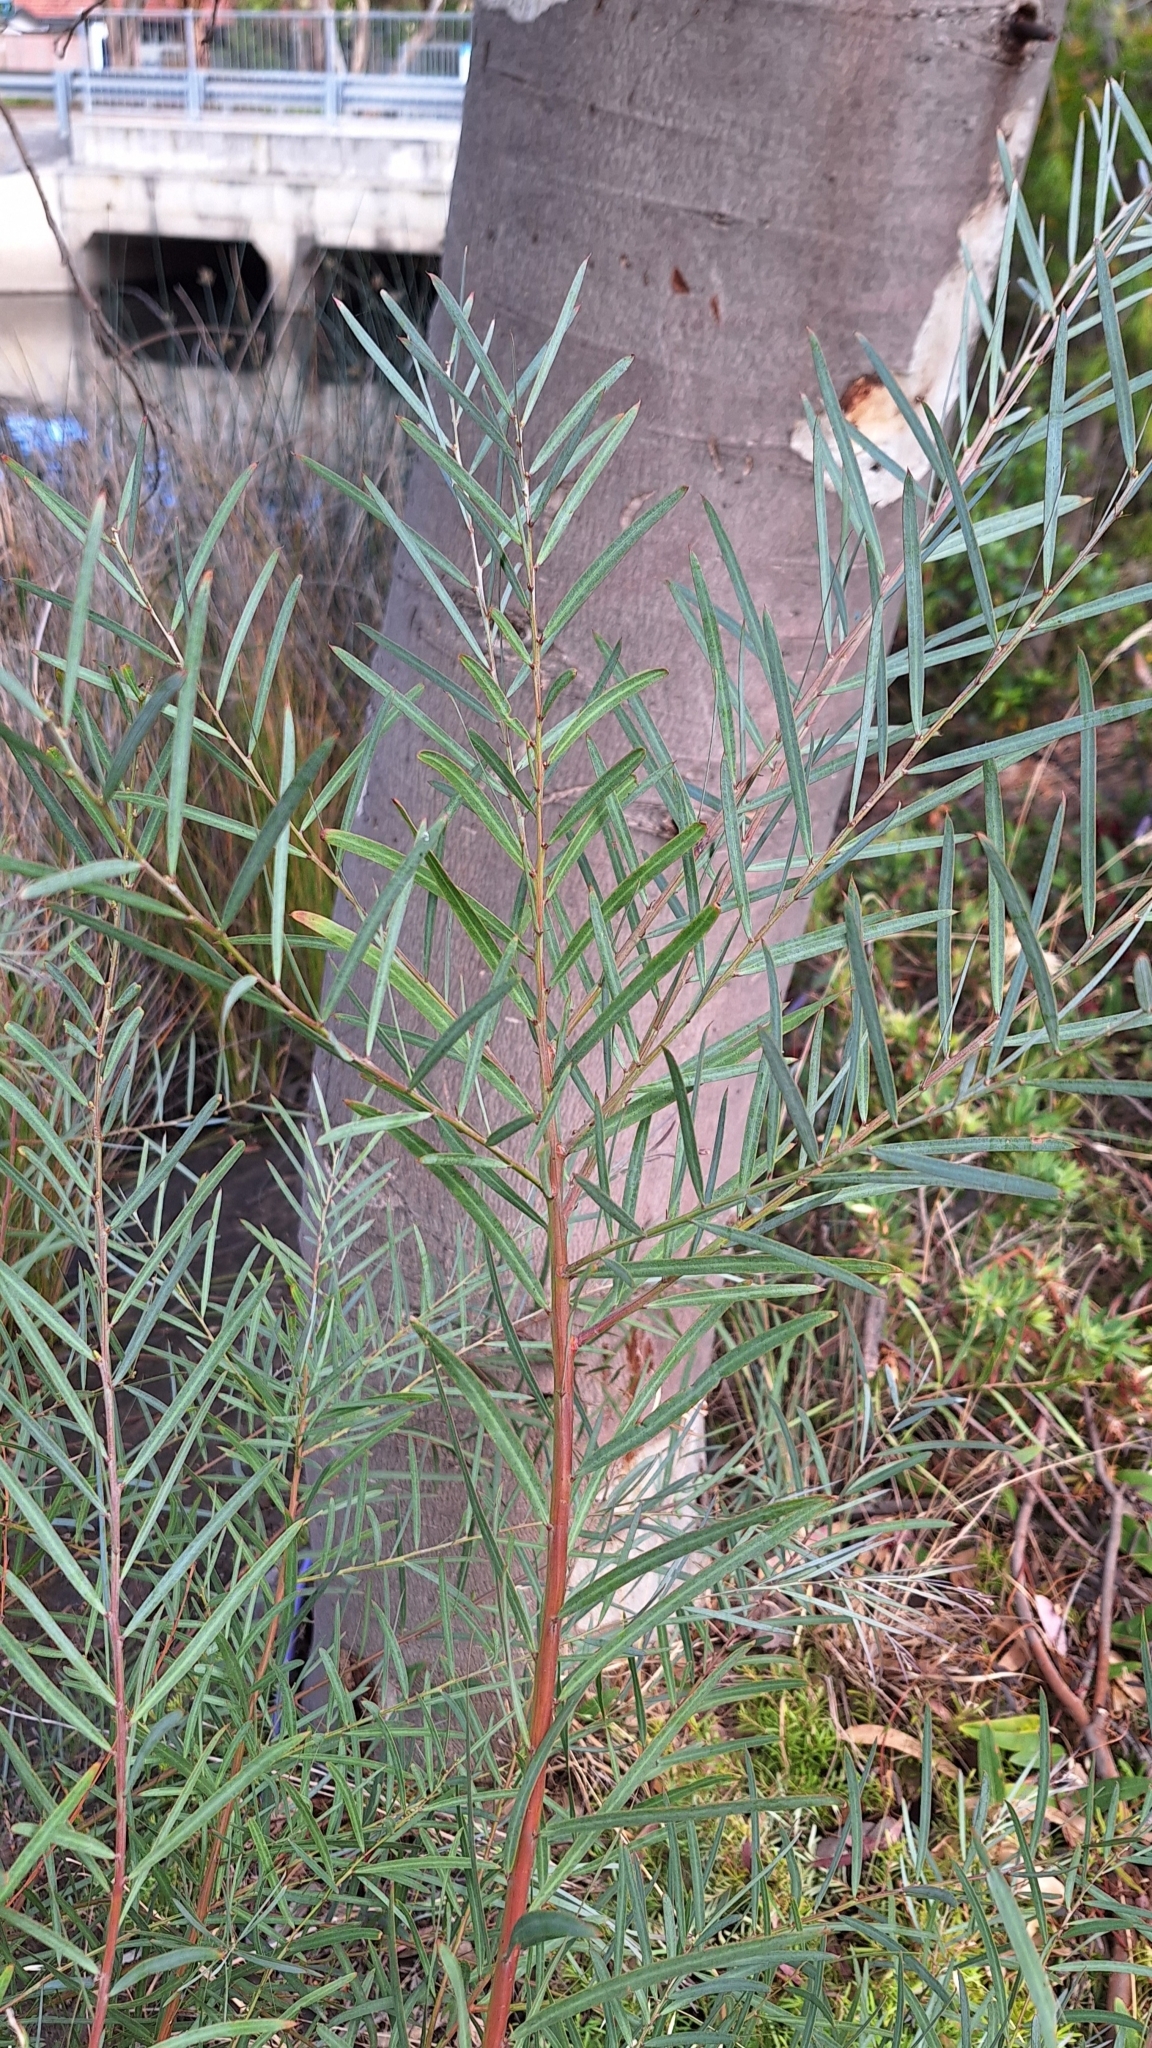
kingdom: Plantae
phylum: Tracheophyta
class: Magnoliopsida
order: Fabales
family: Fabaceae
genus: Acacia
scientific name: Acacia iteaphylla
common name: Flinders ranges wattle
